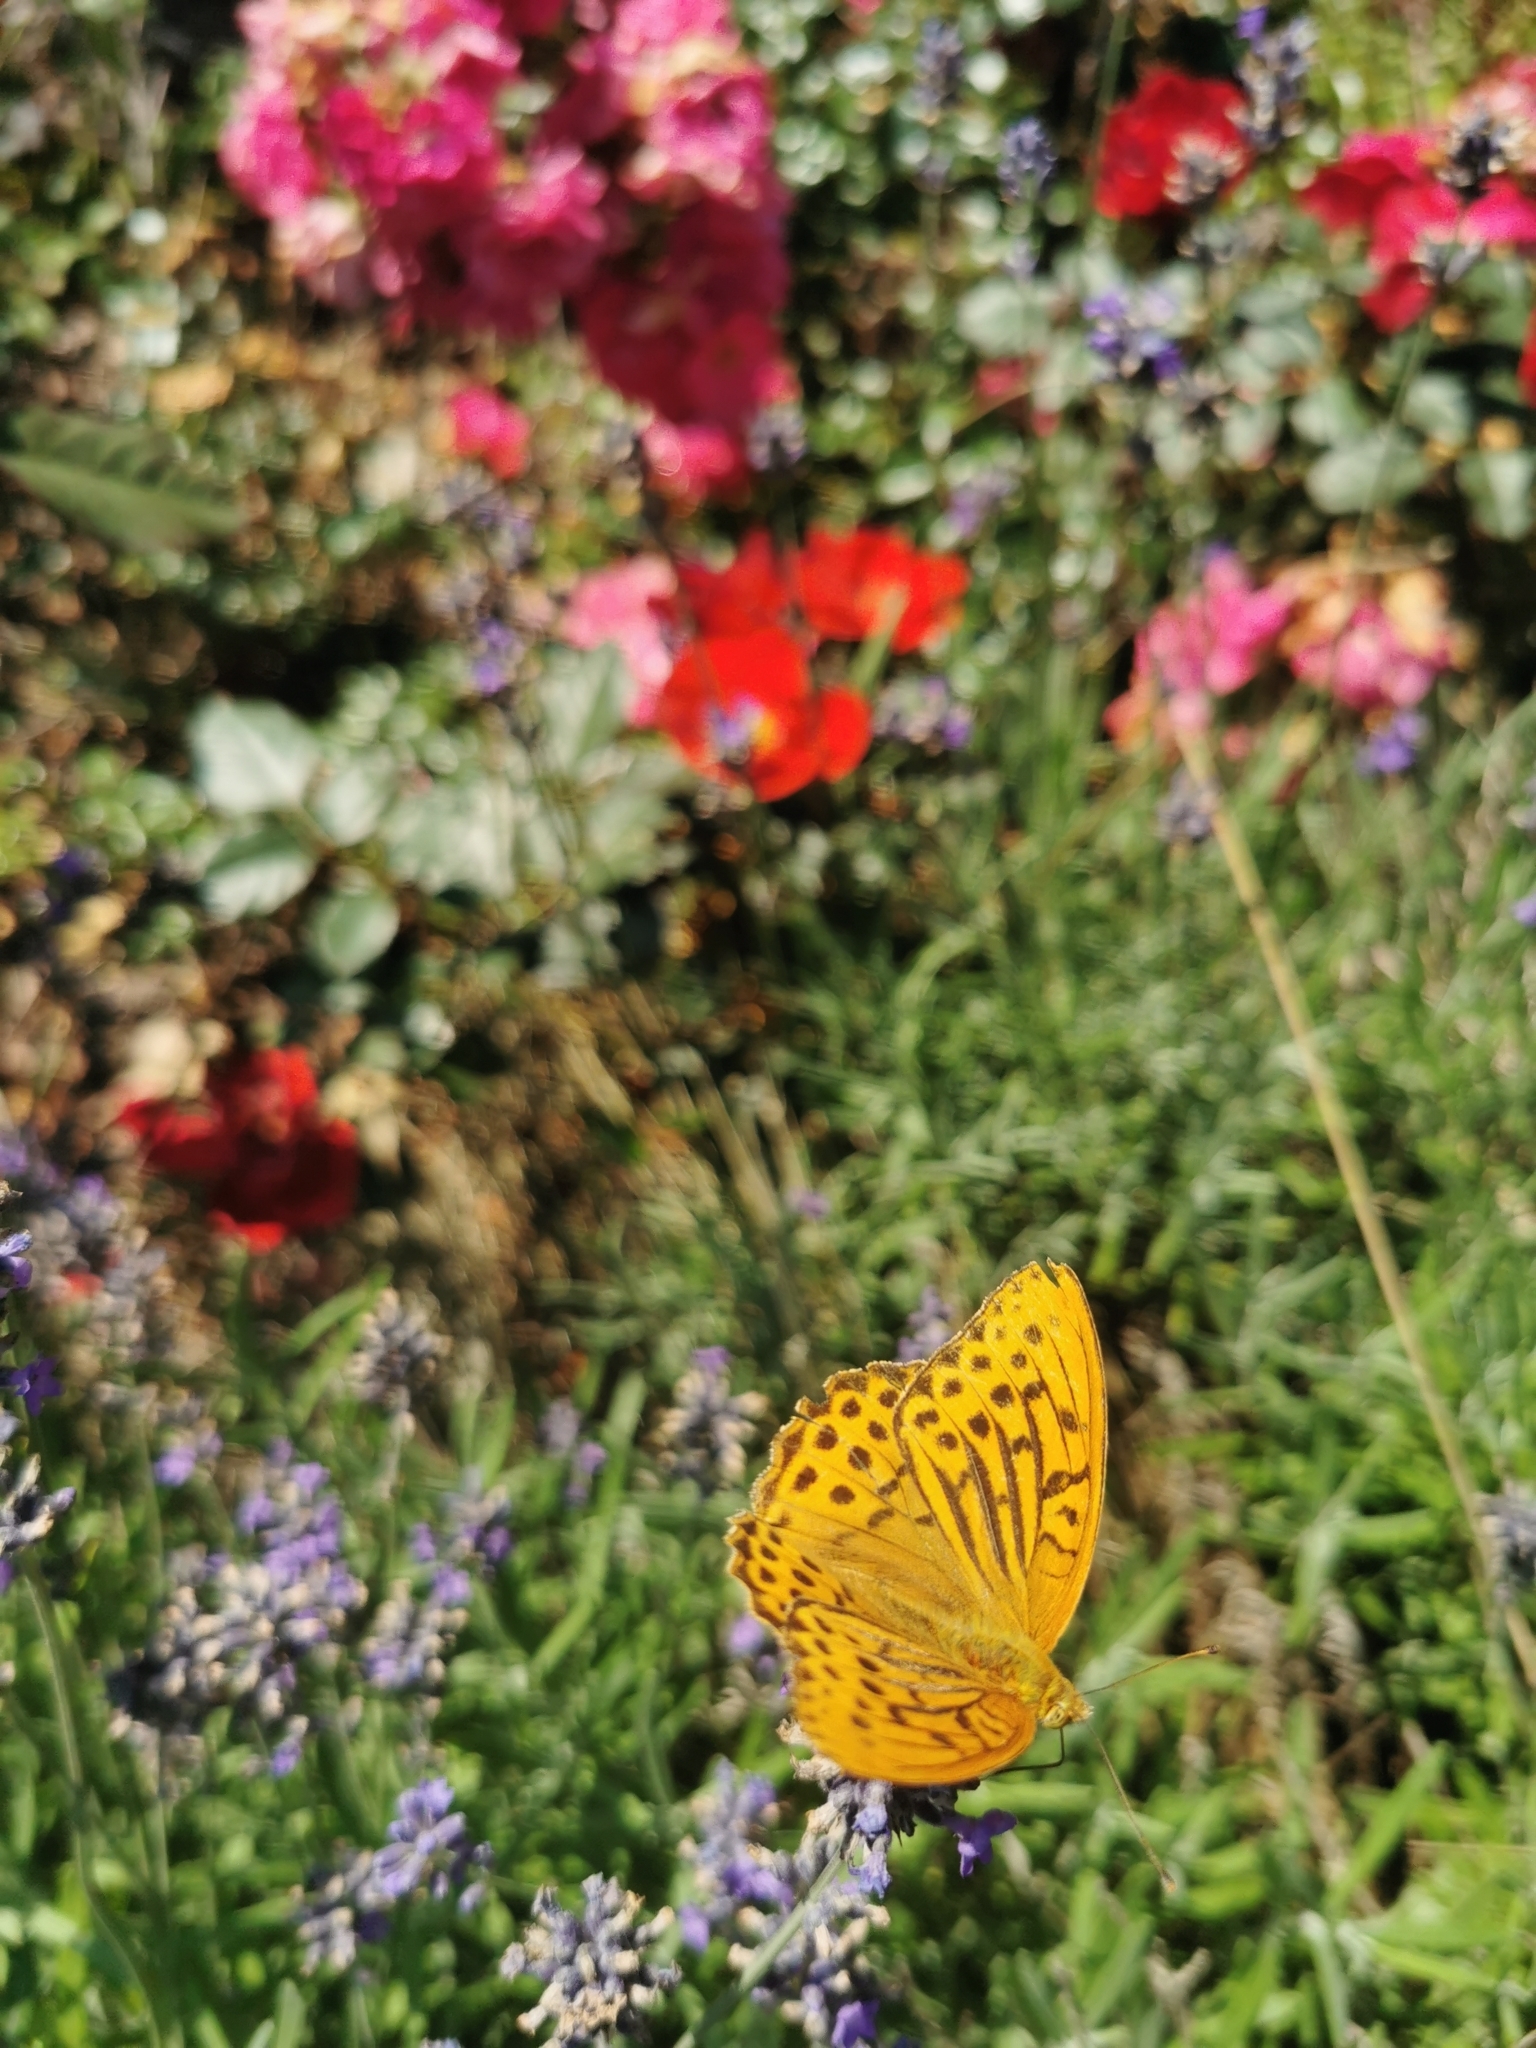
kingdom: Animalia
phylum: Arthropoda
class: Insecta
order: Lepidoptera
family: Nymphalidae
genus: Argynnis
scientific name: Argynnis paphia
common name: Silver-washed fritillary
